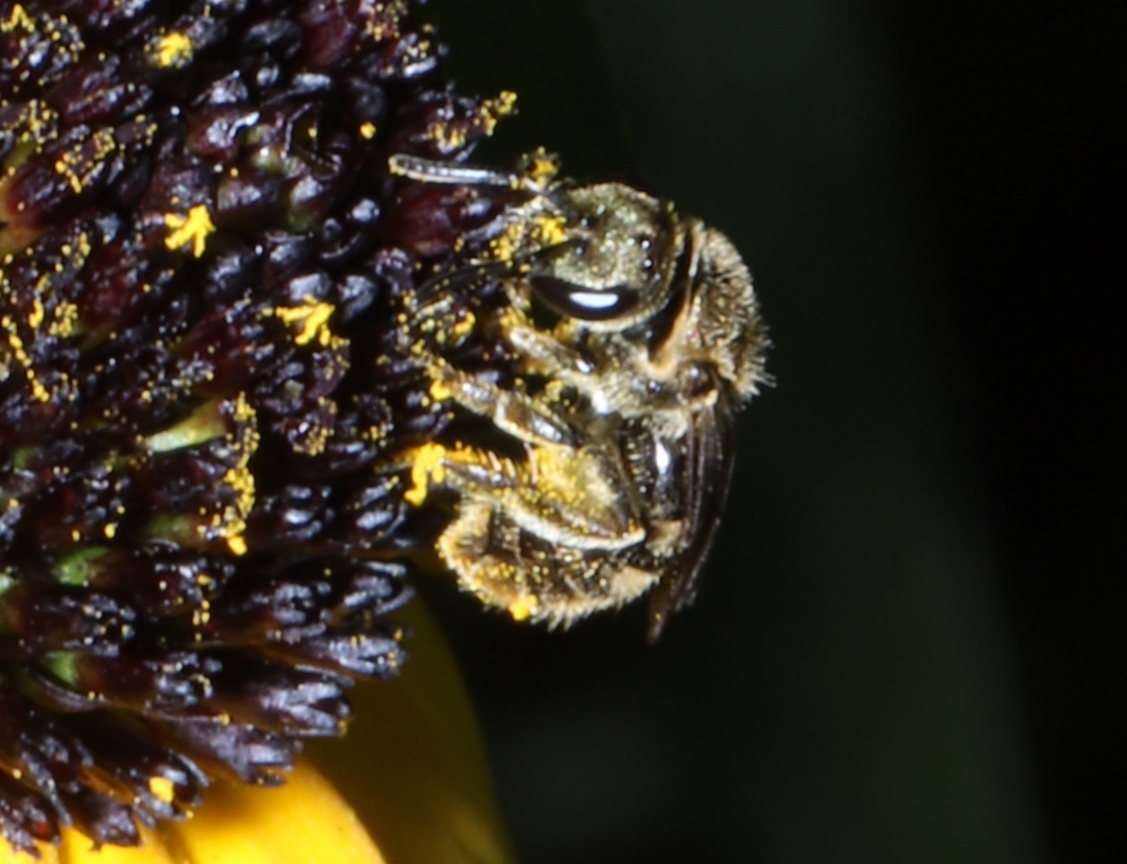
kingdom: Animalia
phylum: Arthropoda
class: Insecta
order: Hymenoptera
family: Halictidae
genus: Dialictus
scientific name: Dialictus
